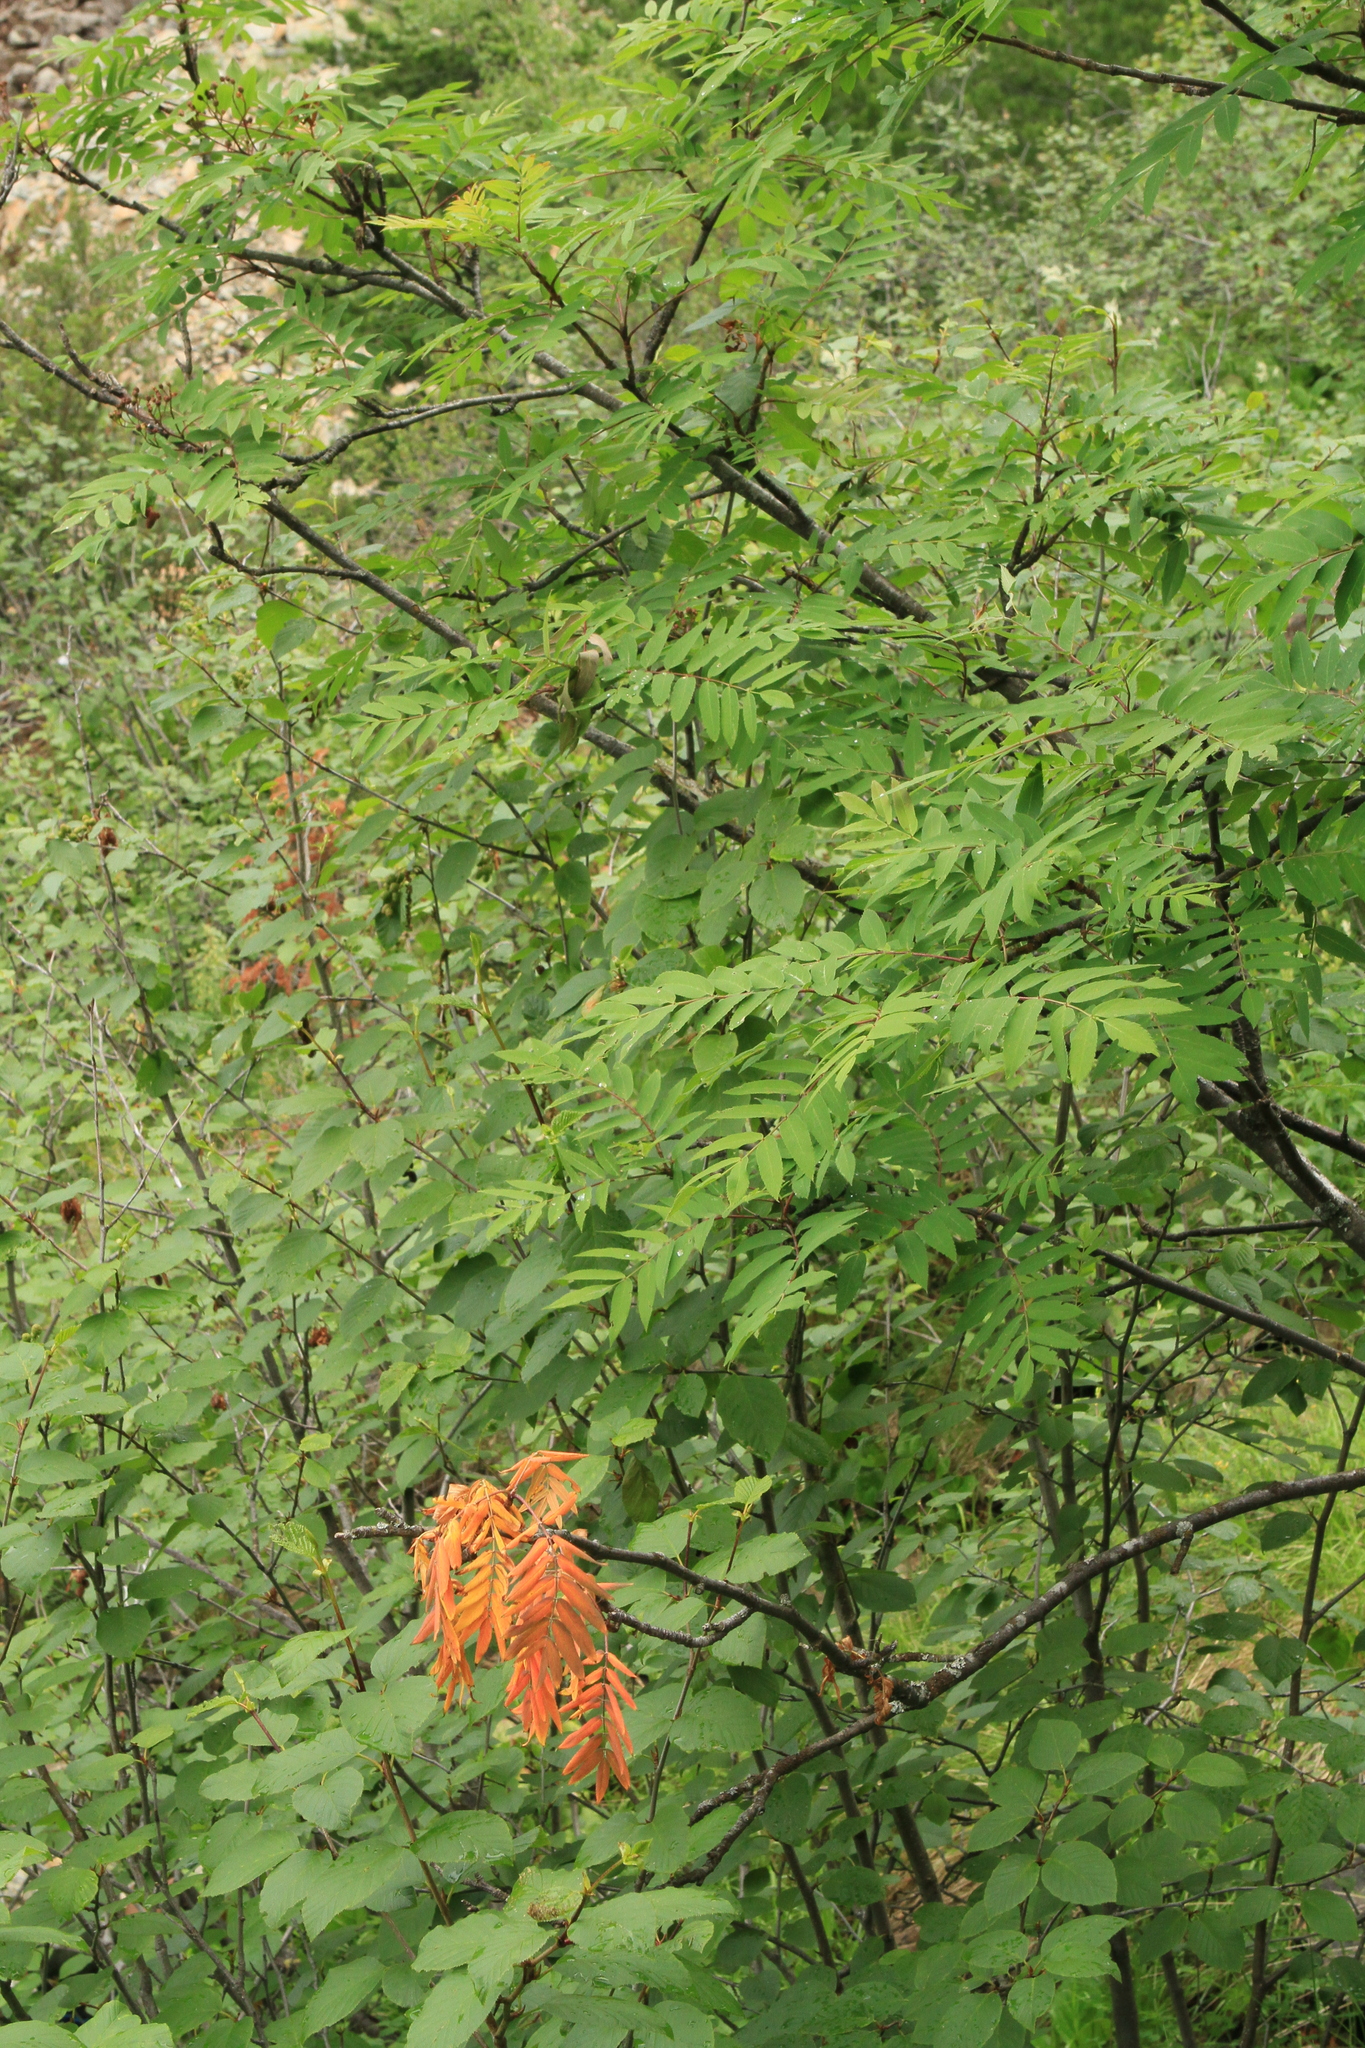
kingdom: Plantae
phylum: Tracheophyta
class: Magnoliopsida
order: Rosales
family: Rosaceae
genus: Sorbus
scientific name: Sorbus aucuparia
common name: Rowan
